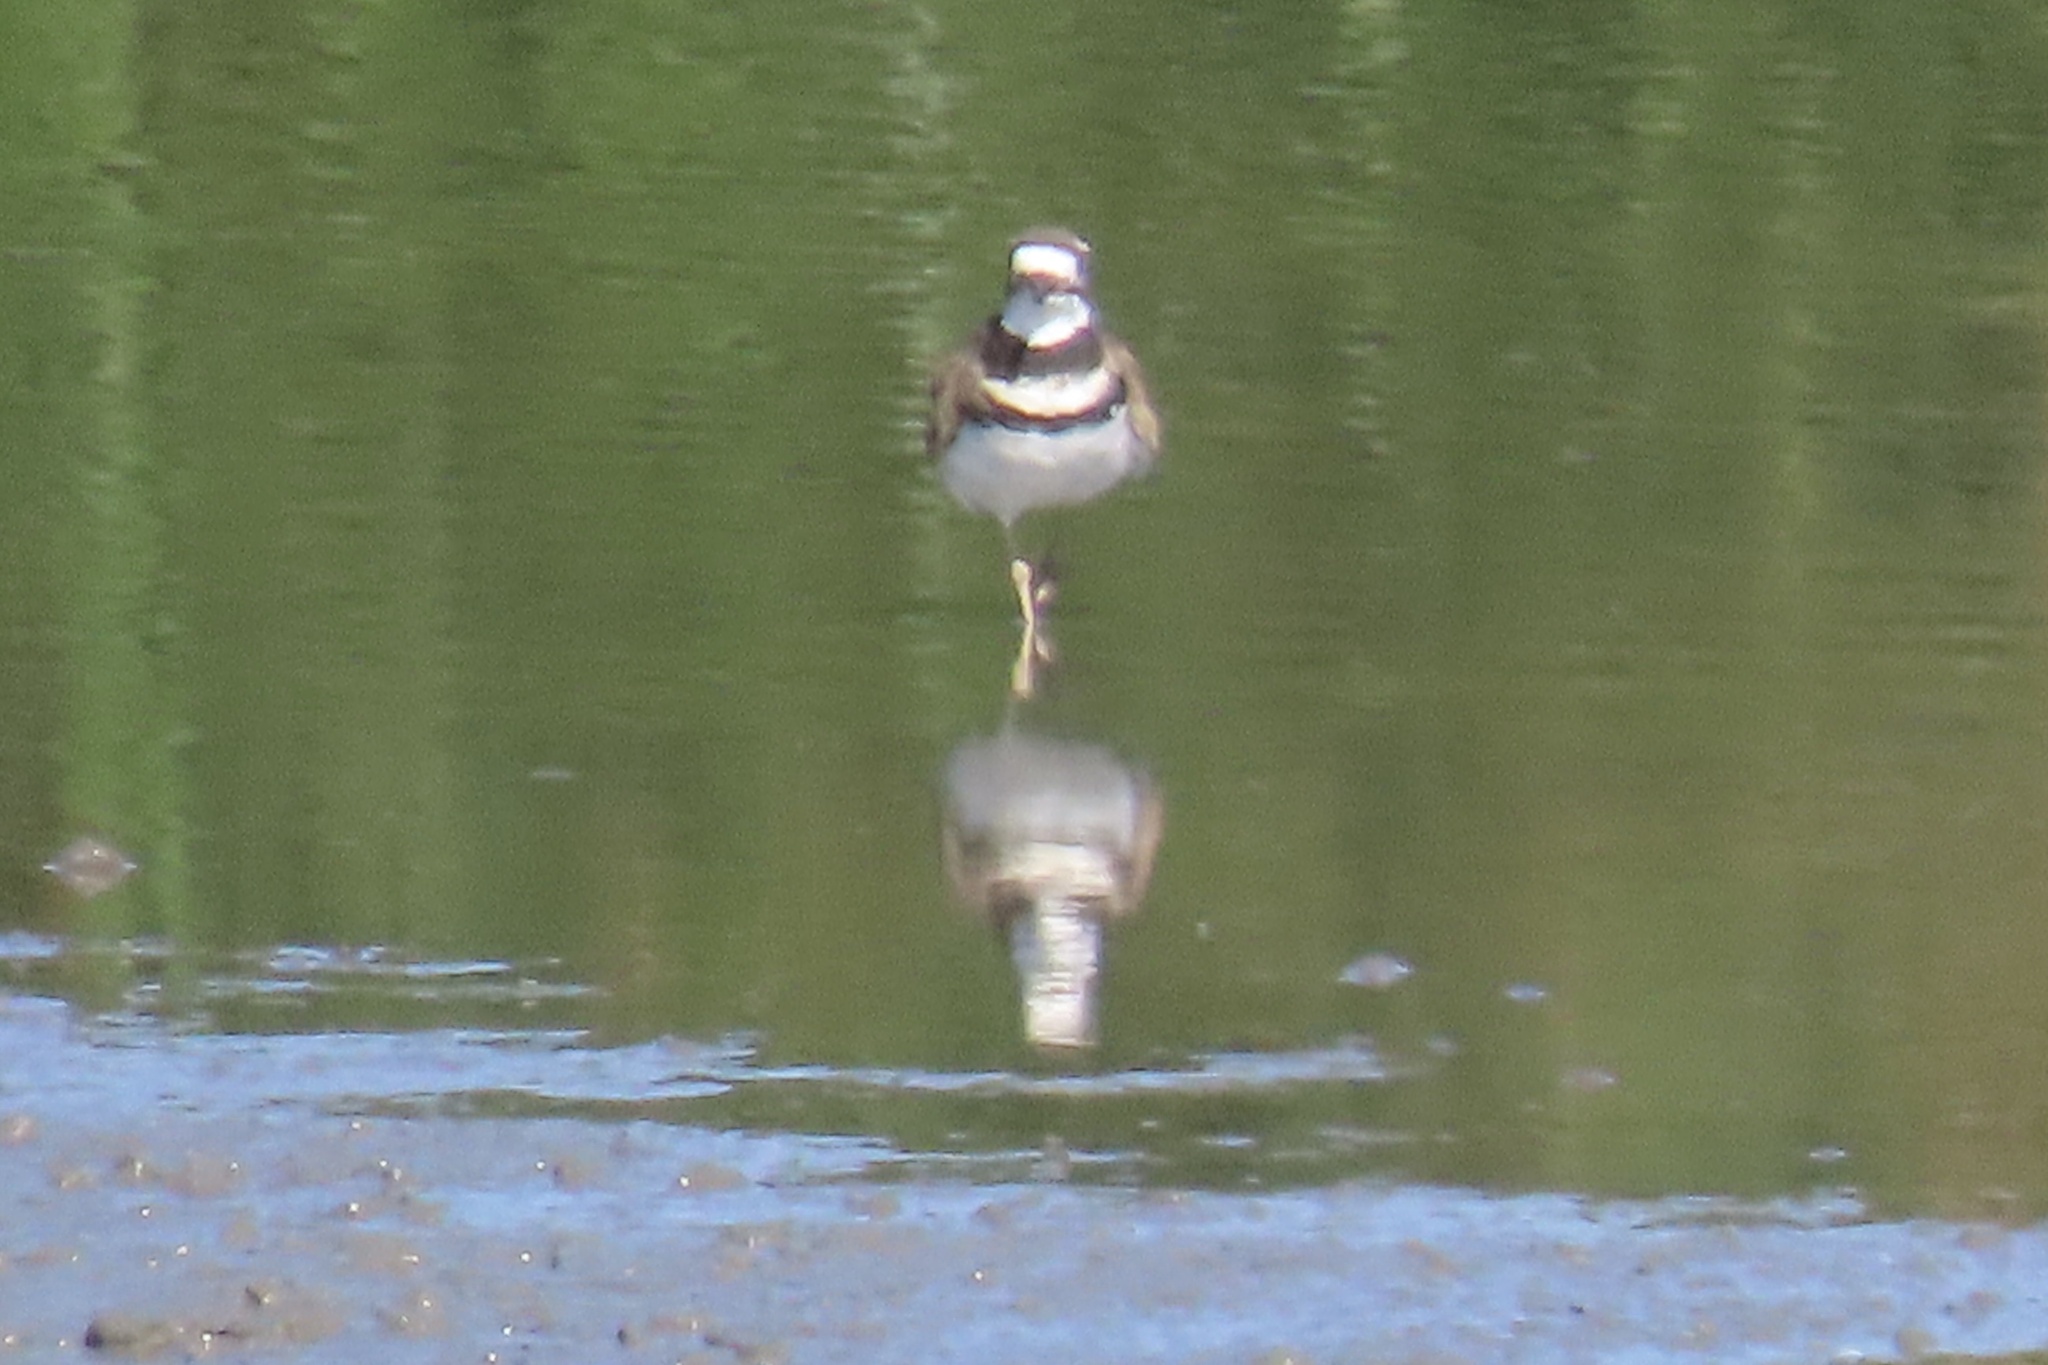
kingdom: Animalia
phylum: Chordata
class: Aves
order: Charadriiformes
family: Charadriidae
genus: Charadrius
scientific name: Charadrius vociferus
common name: Killdeer
